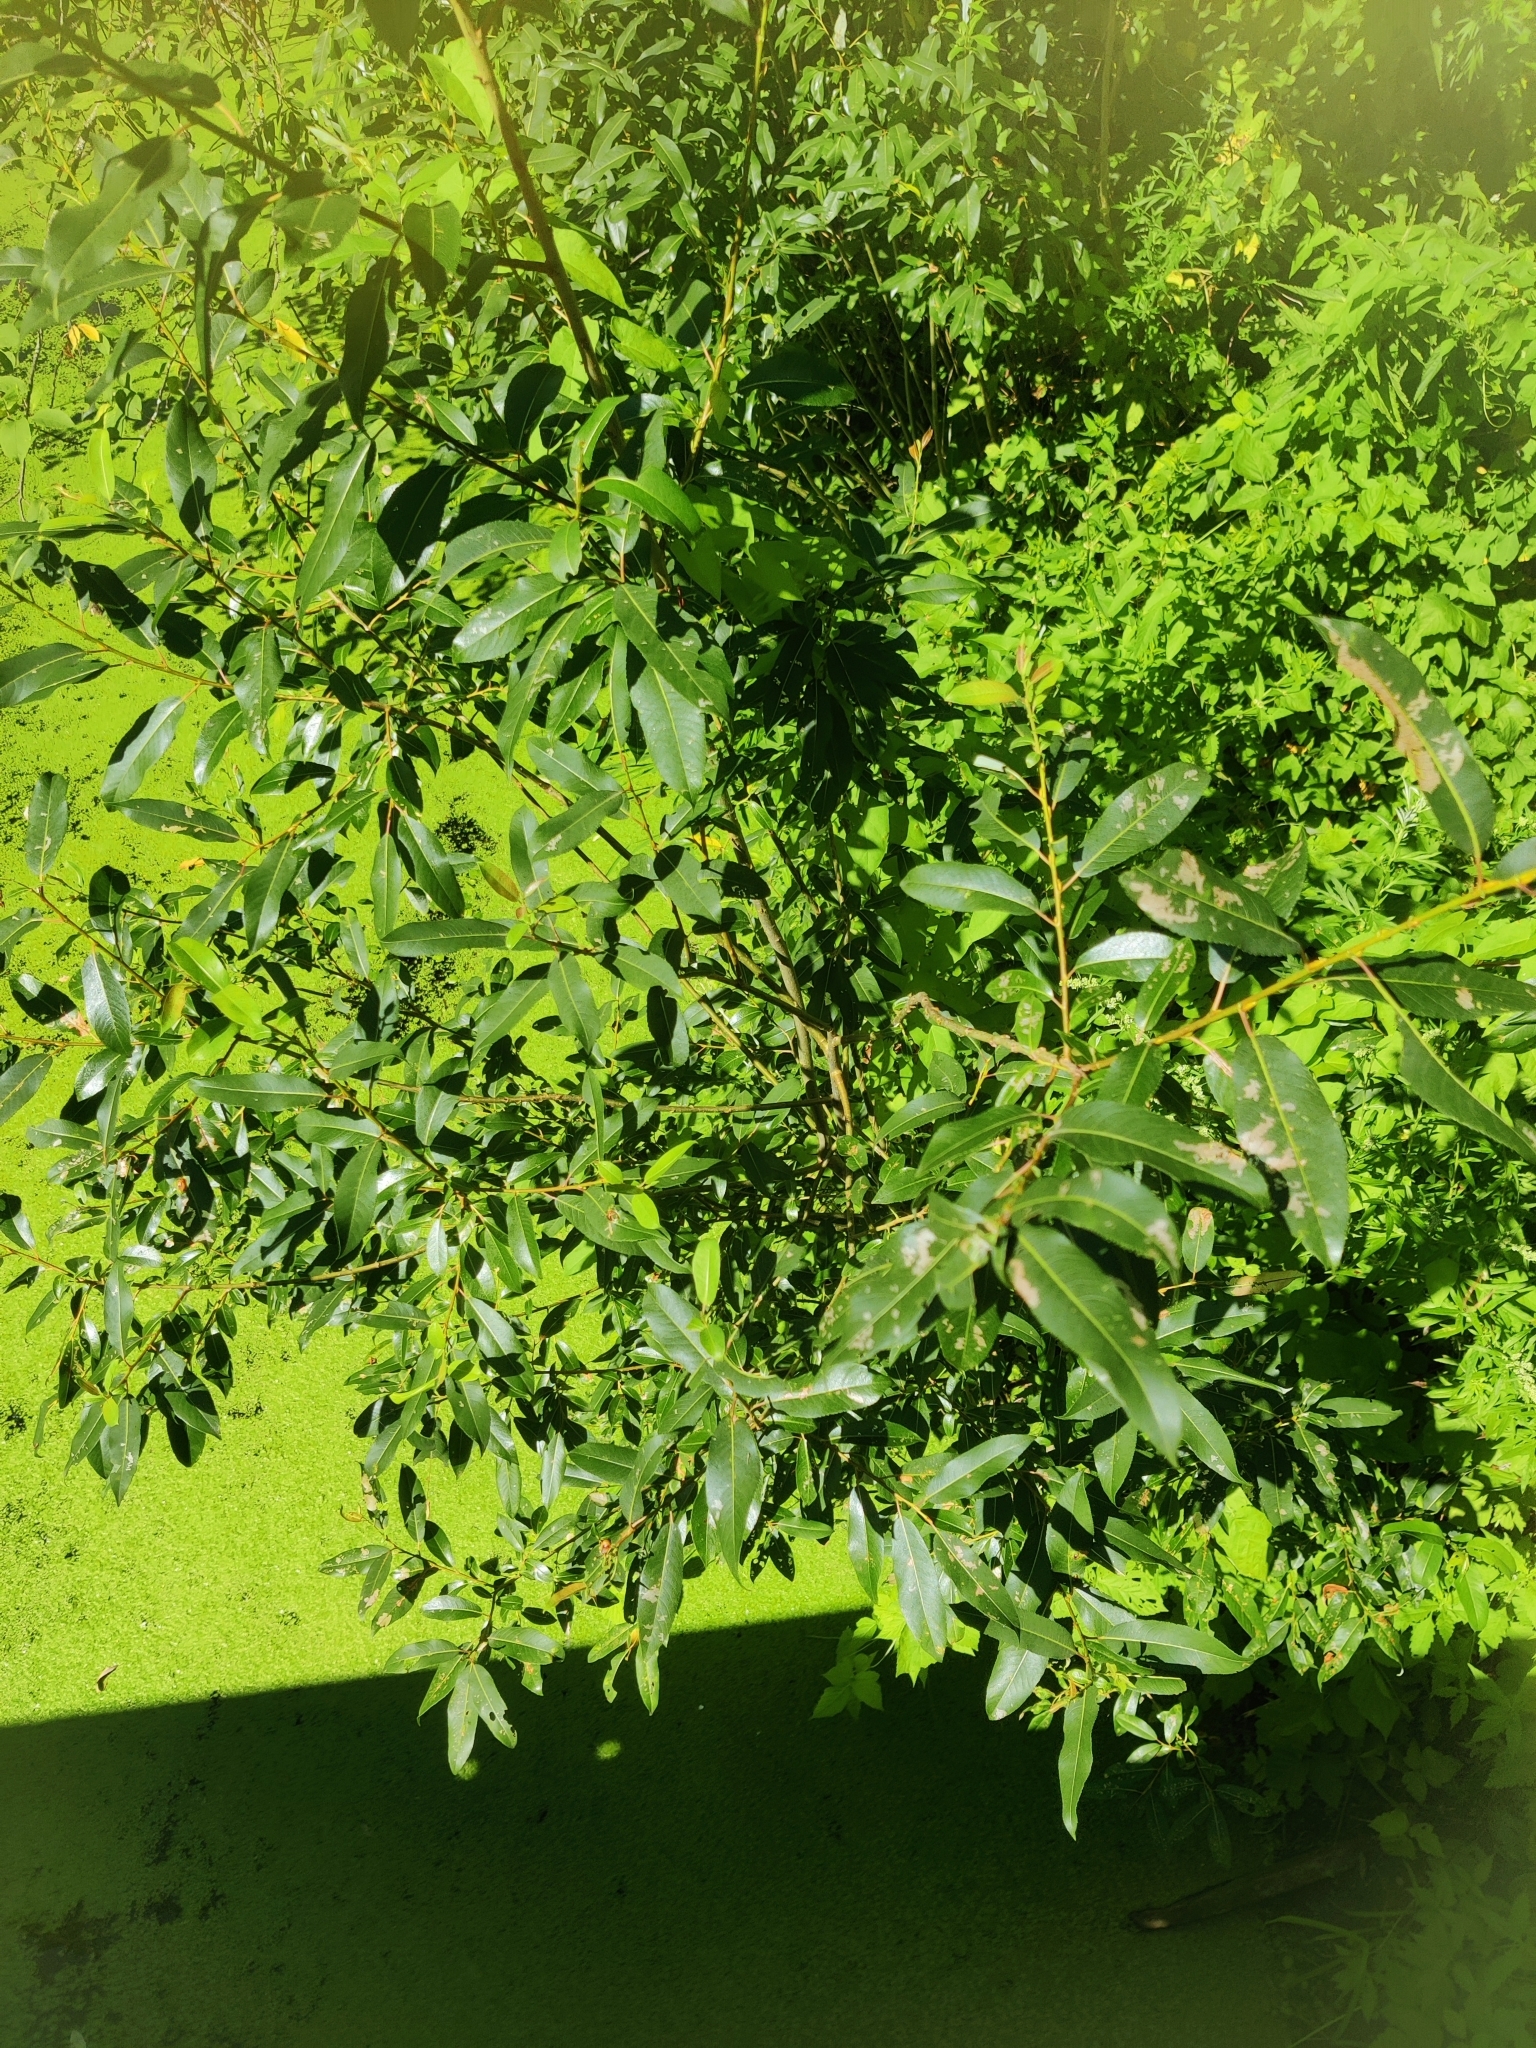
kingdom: Plantae
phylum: Tracheophyta
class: Magnoliopsida
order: Malpighiales
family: Salicaceae
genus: Salix
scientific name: Salix triandra
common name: Almond willow
